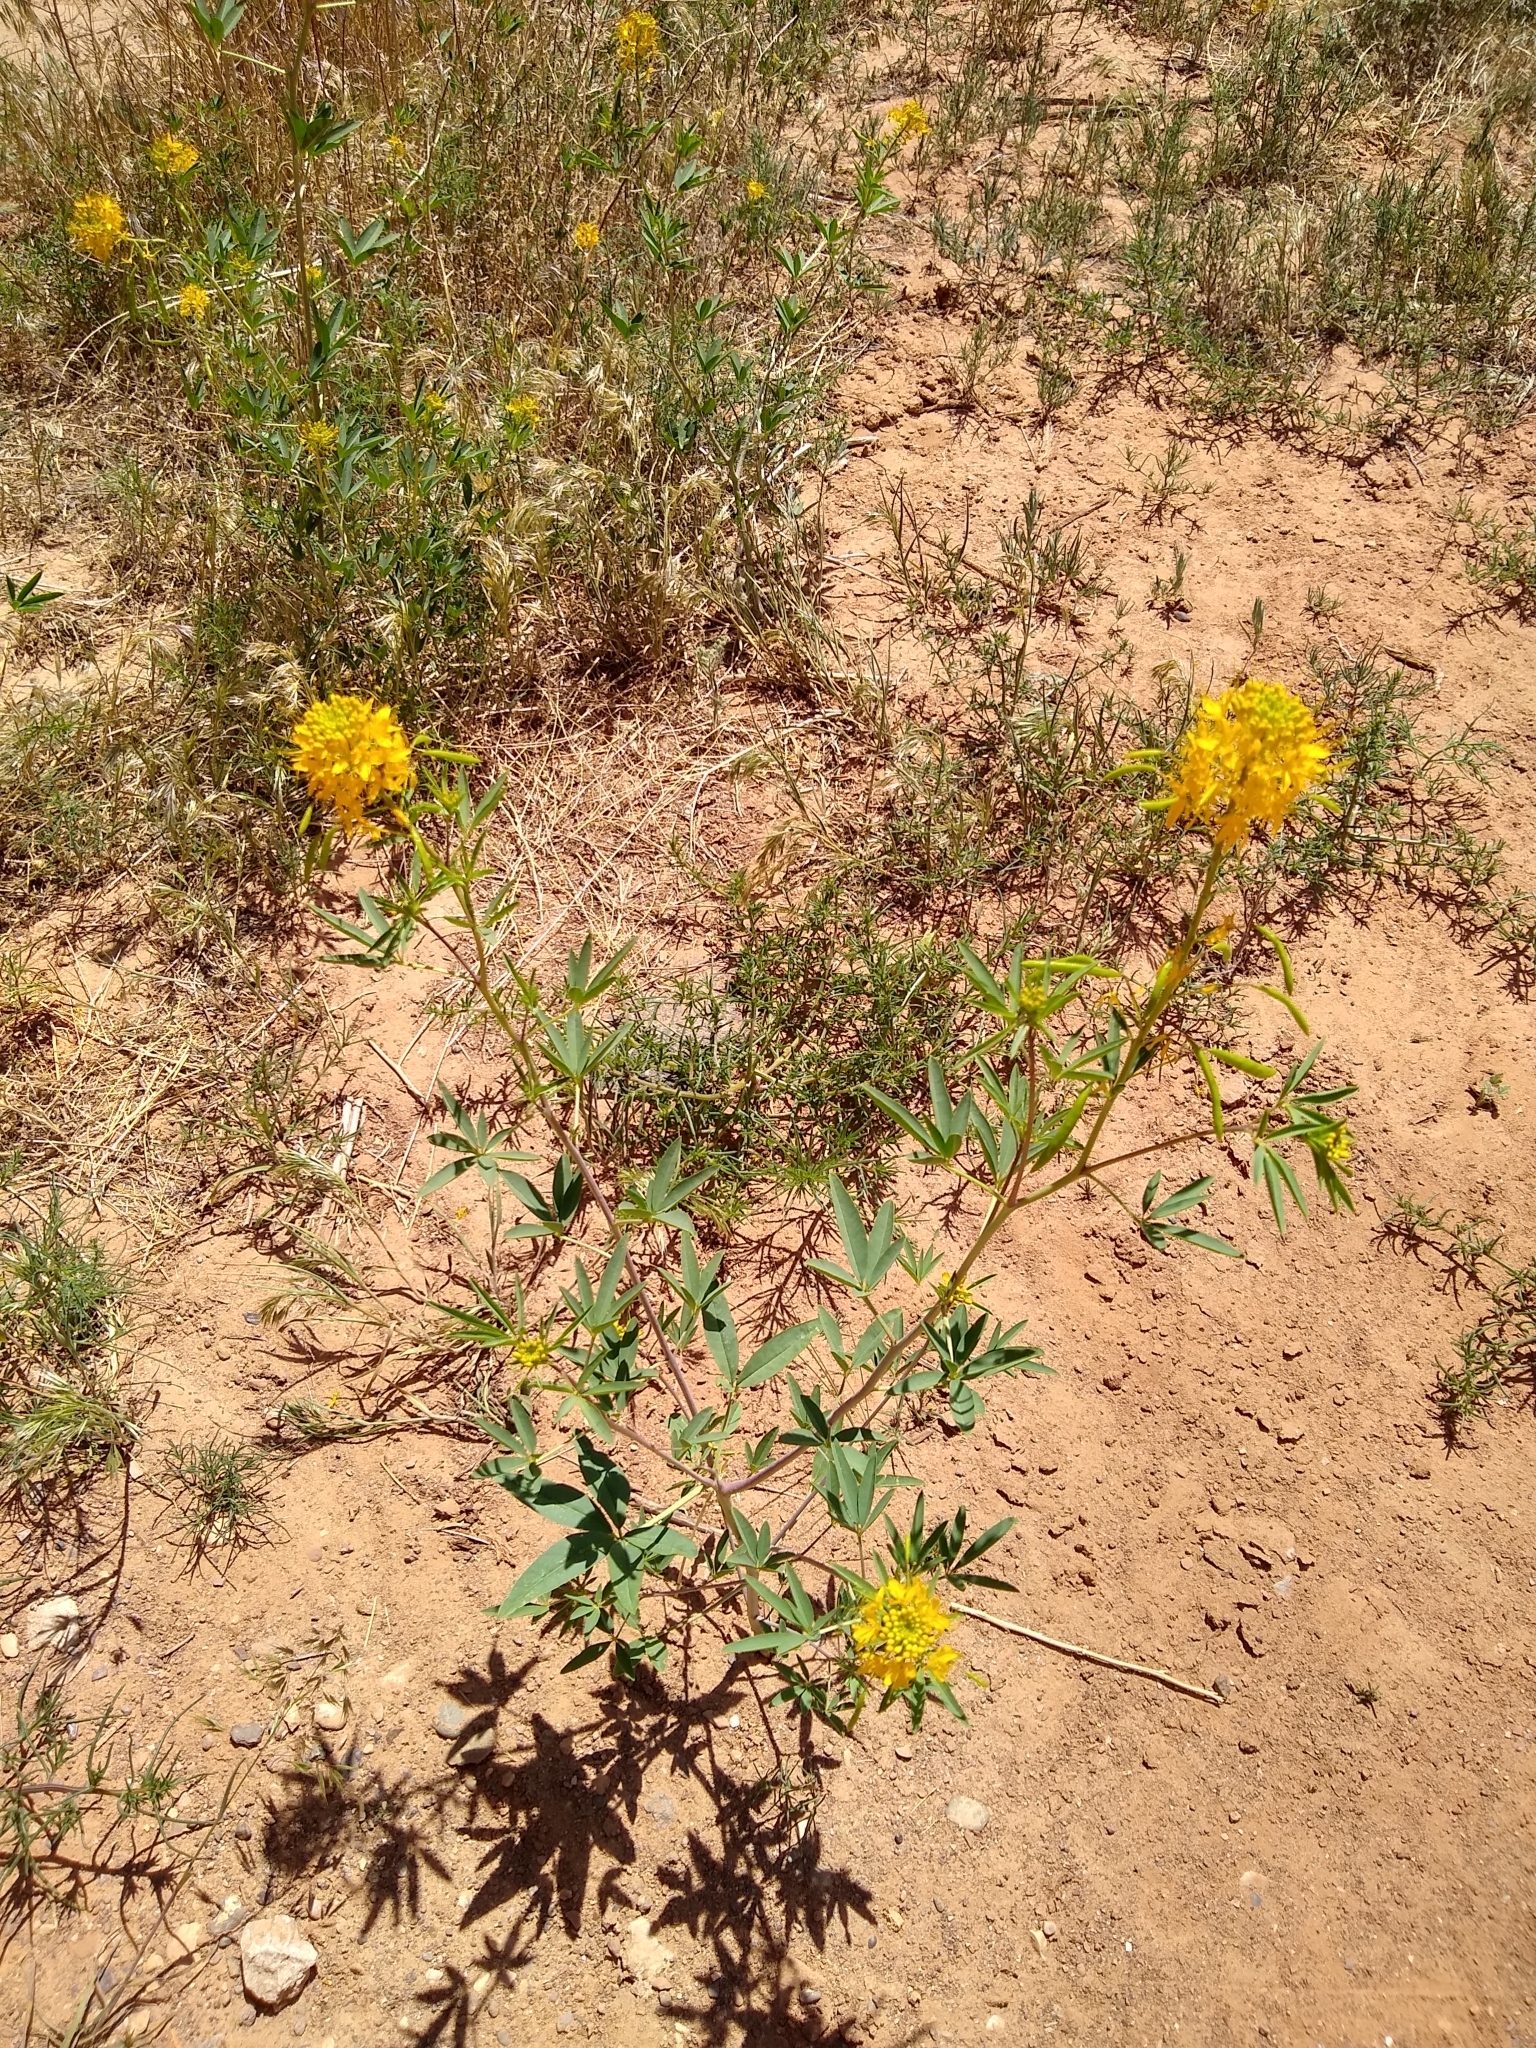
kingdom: Plantae
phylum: Tracheophyta
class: Magnoliopsida
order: Brassicales
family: Cleomaceae
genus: Cleomella
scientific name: Cleomella lutea
